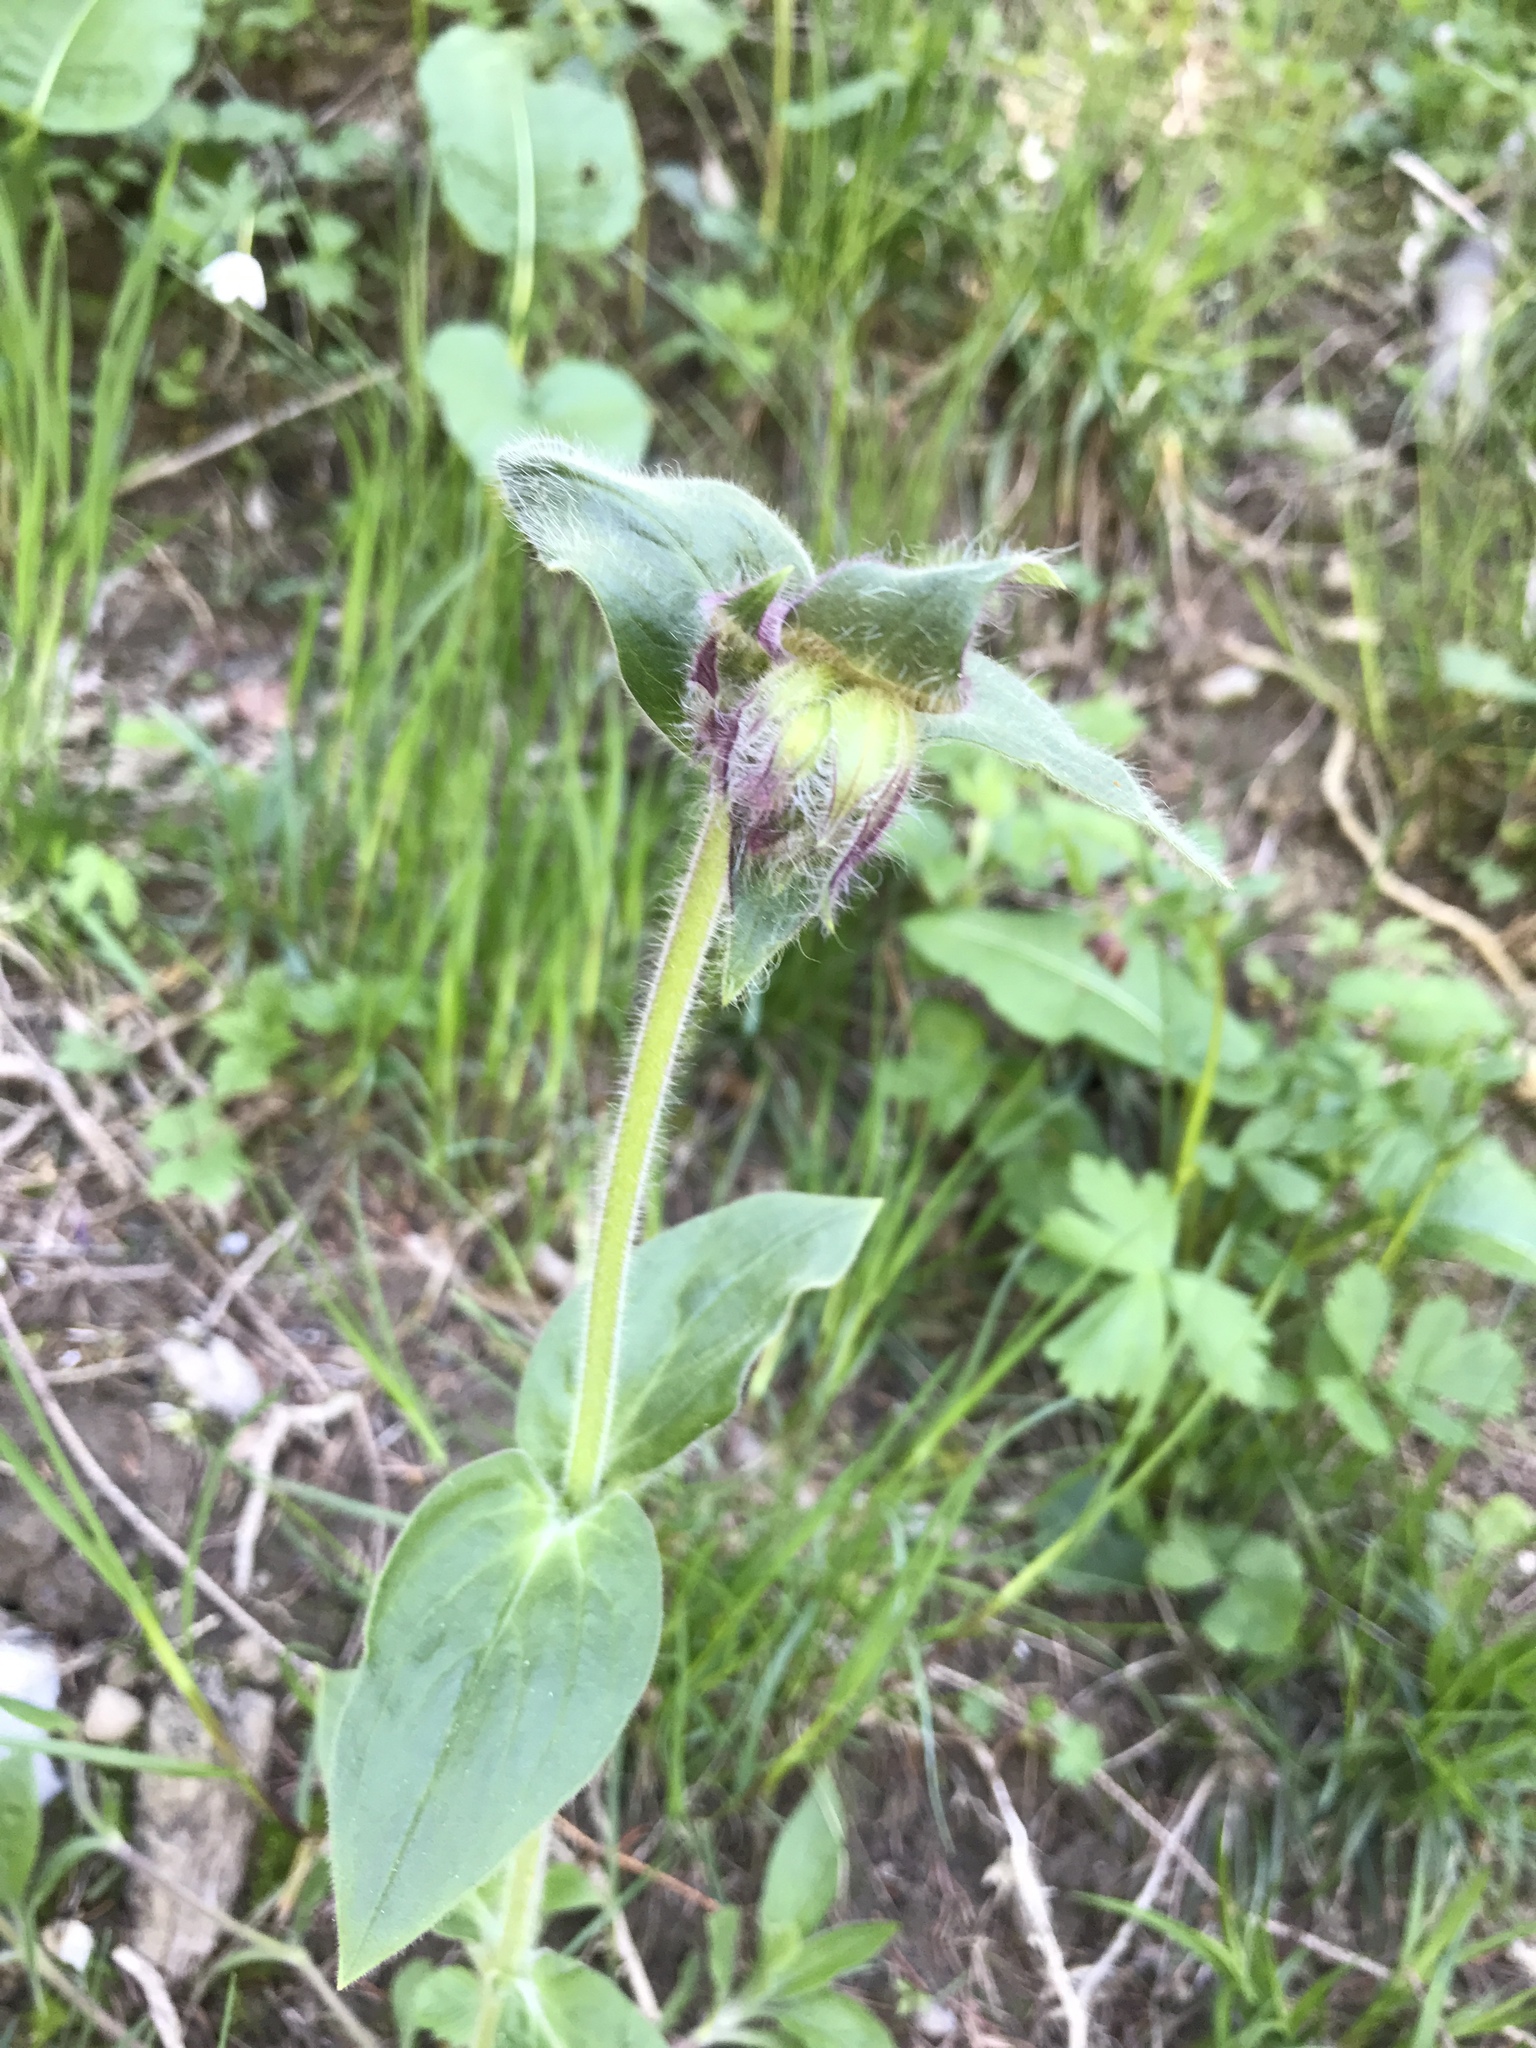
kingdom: Plantae
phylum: Tracheophyta
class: Magnoliopsida
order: Caryophyllales
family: Caryophyllaceae
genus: Silene
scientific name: Silene dioica
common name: Red campion
